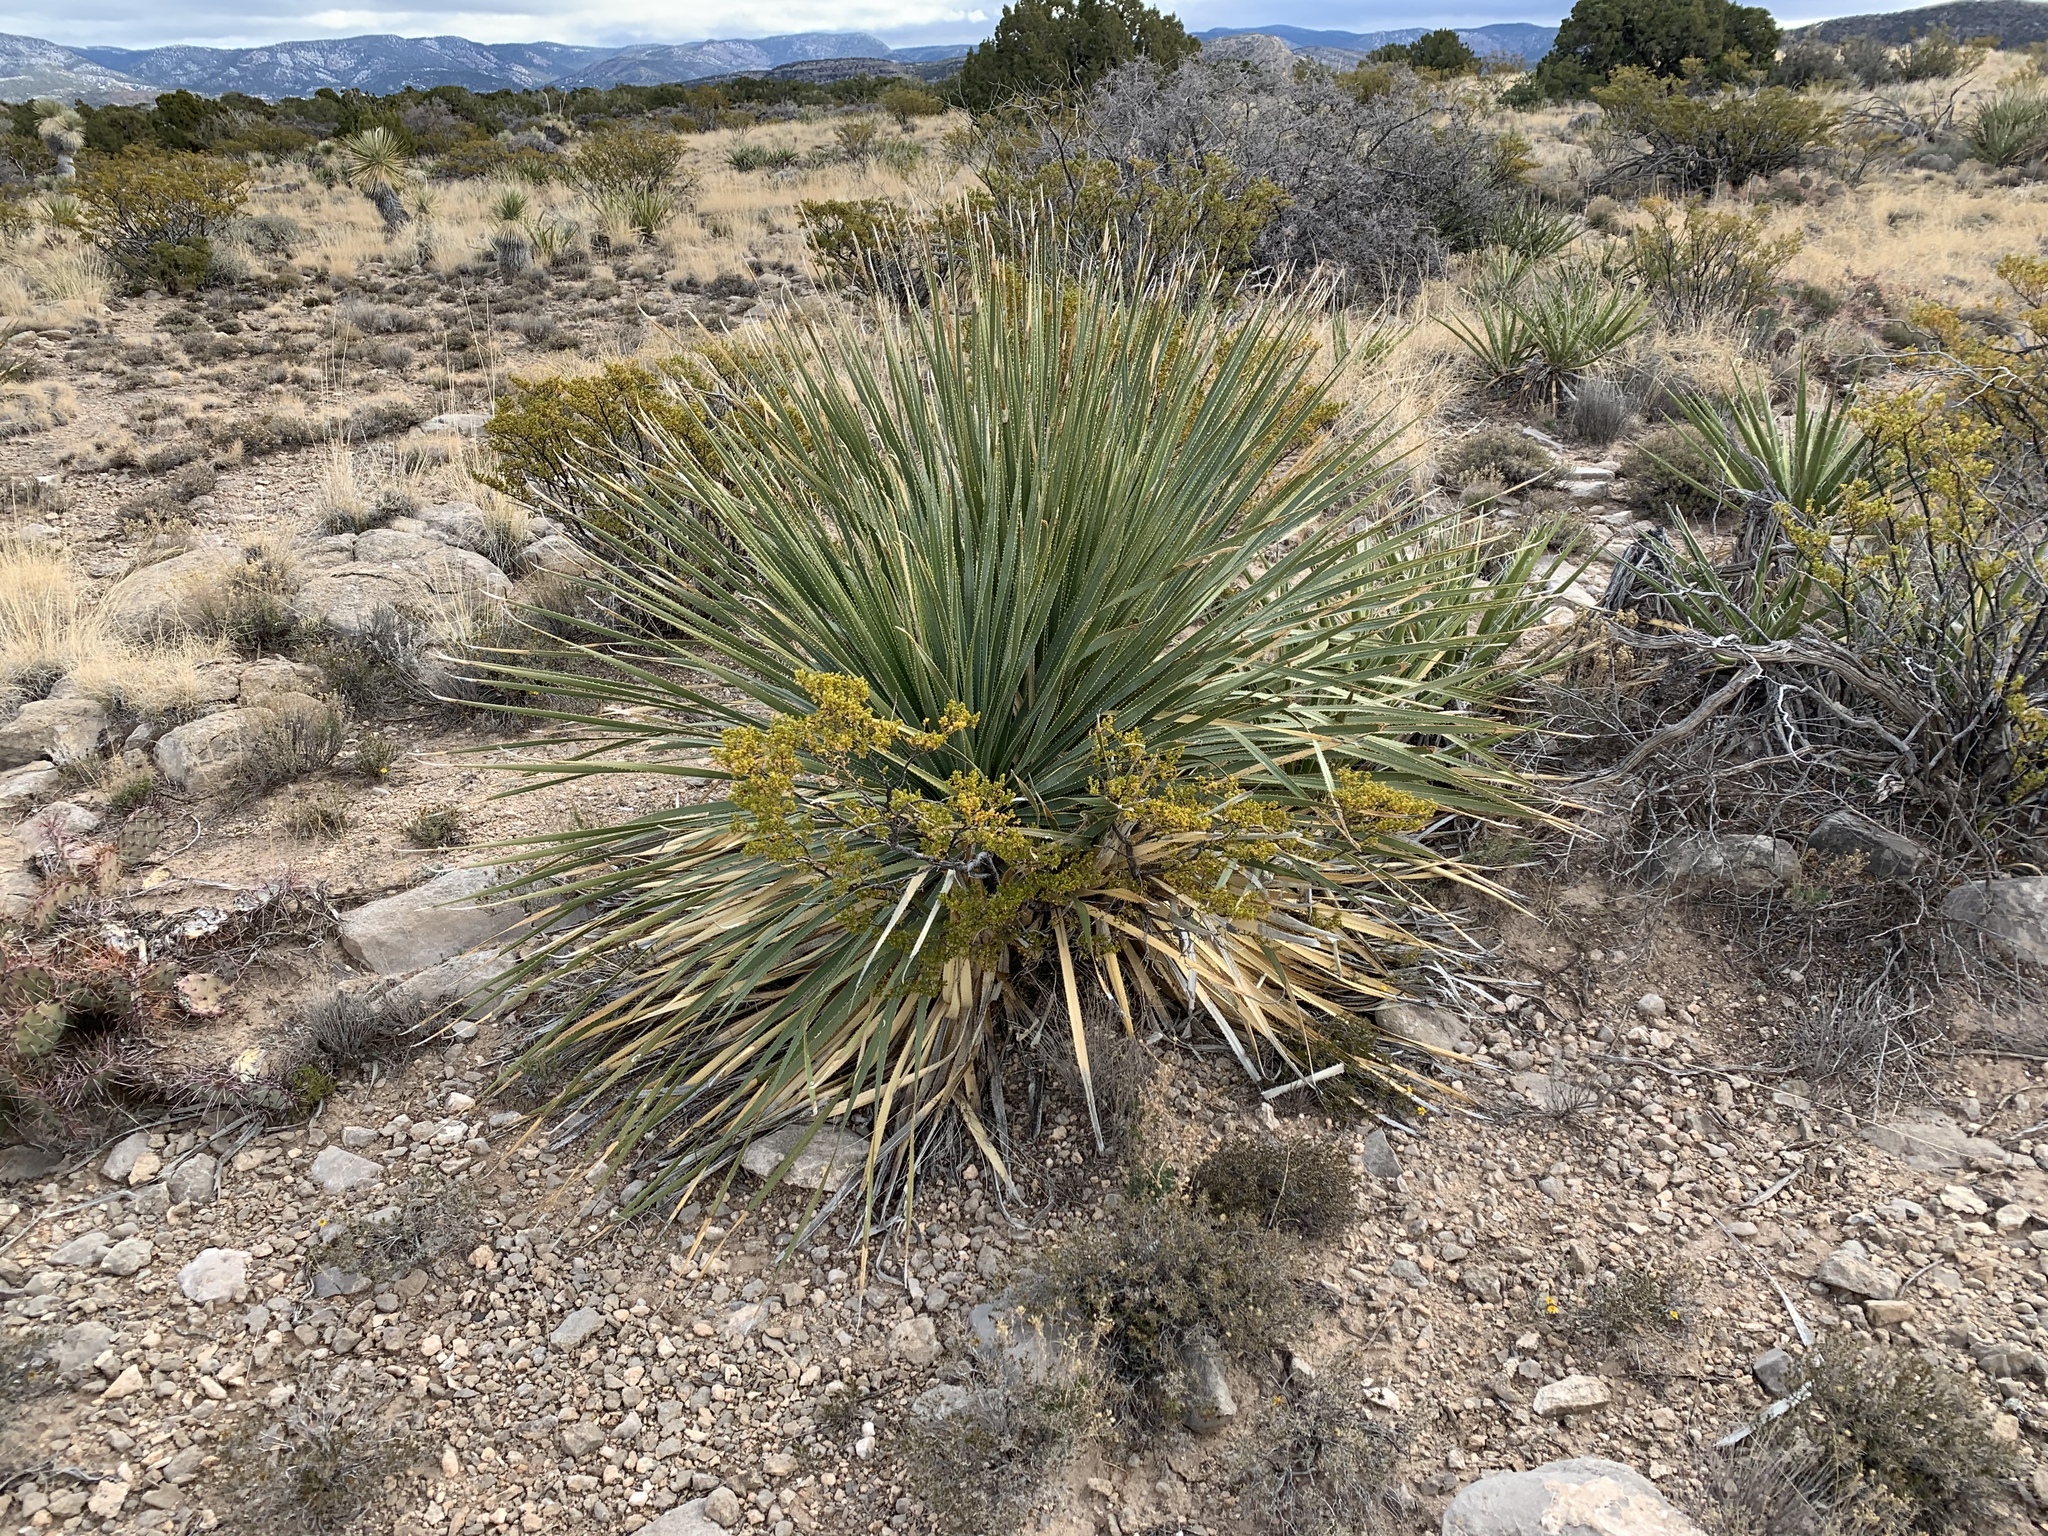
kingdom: Plantae
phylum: Tracheophyta
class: Liliopsida
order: Asparagales
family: Asparagaceae
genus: Dasylirion
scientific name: Dasylirion wheeleri
